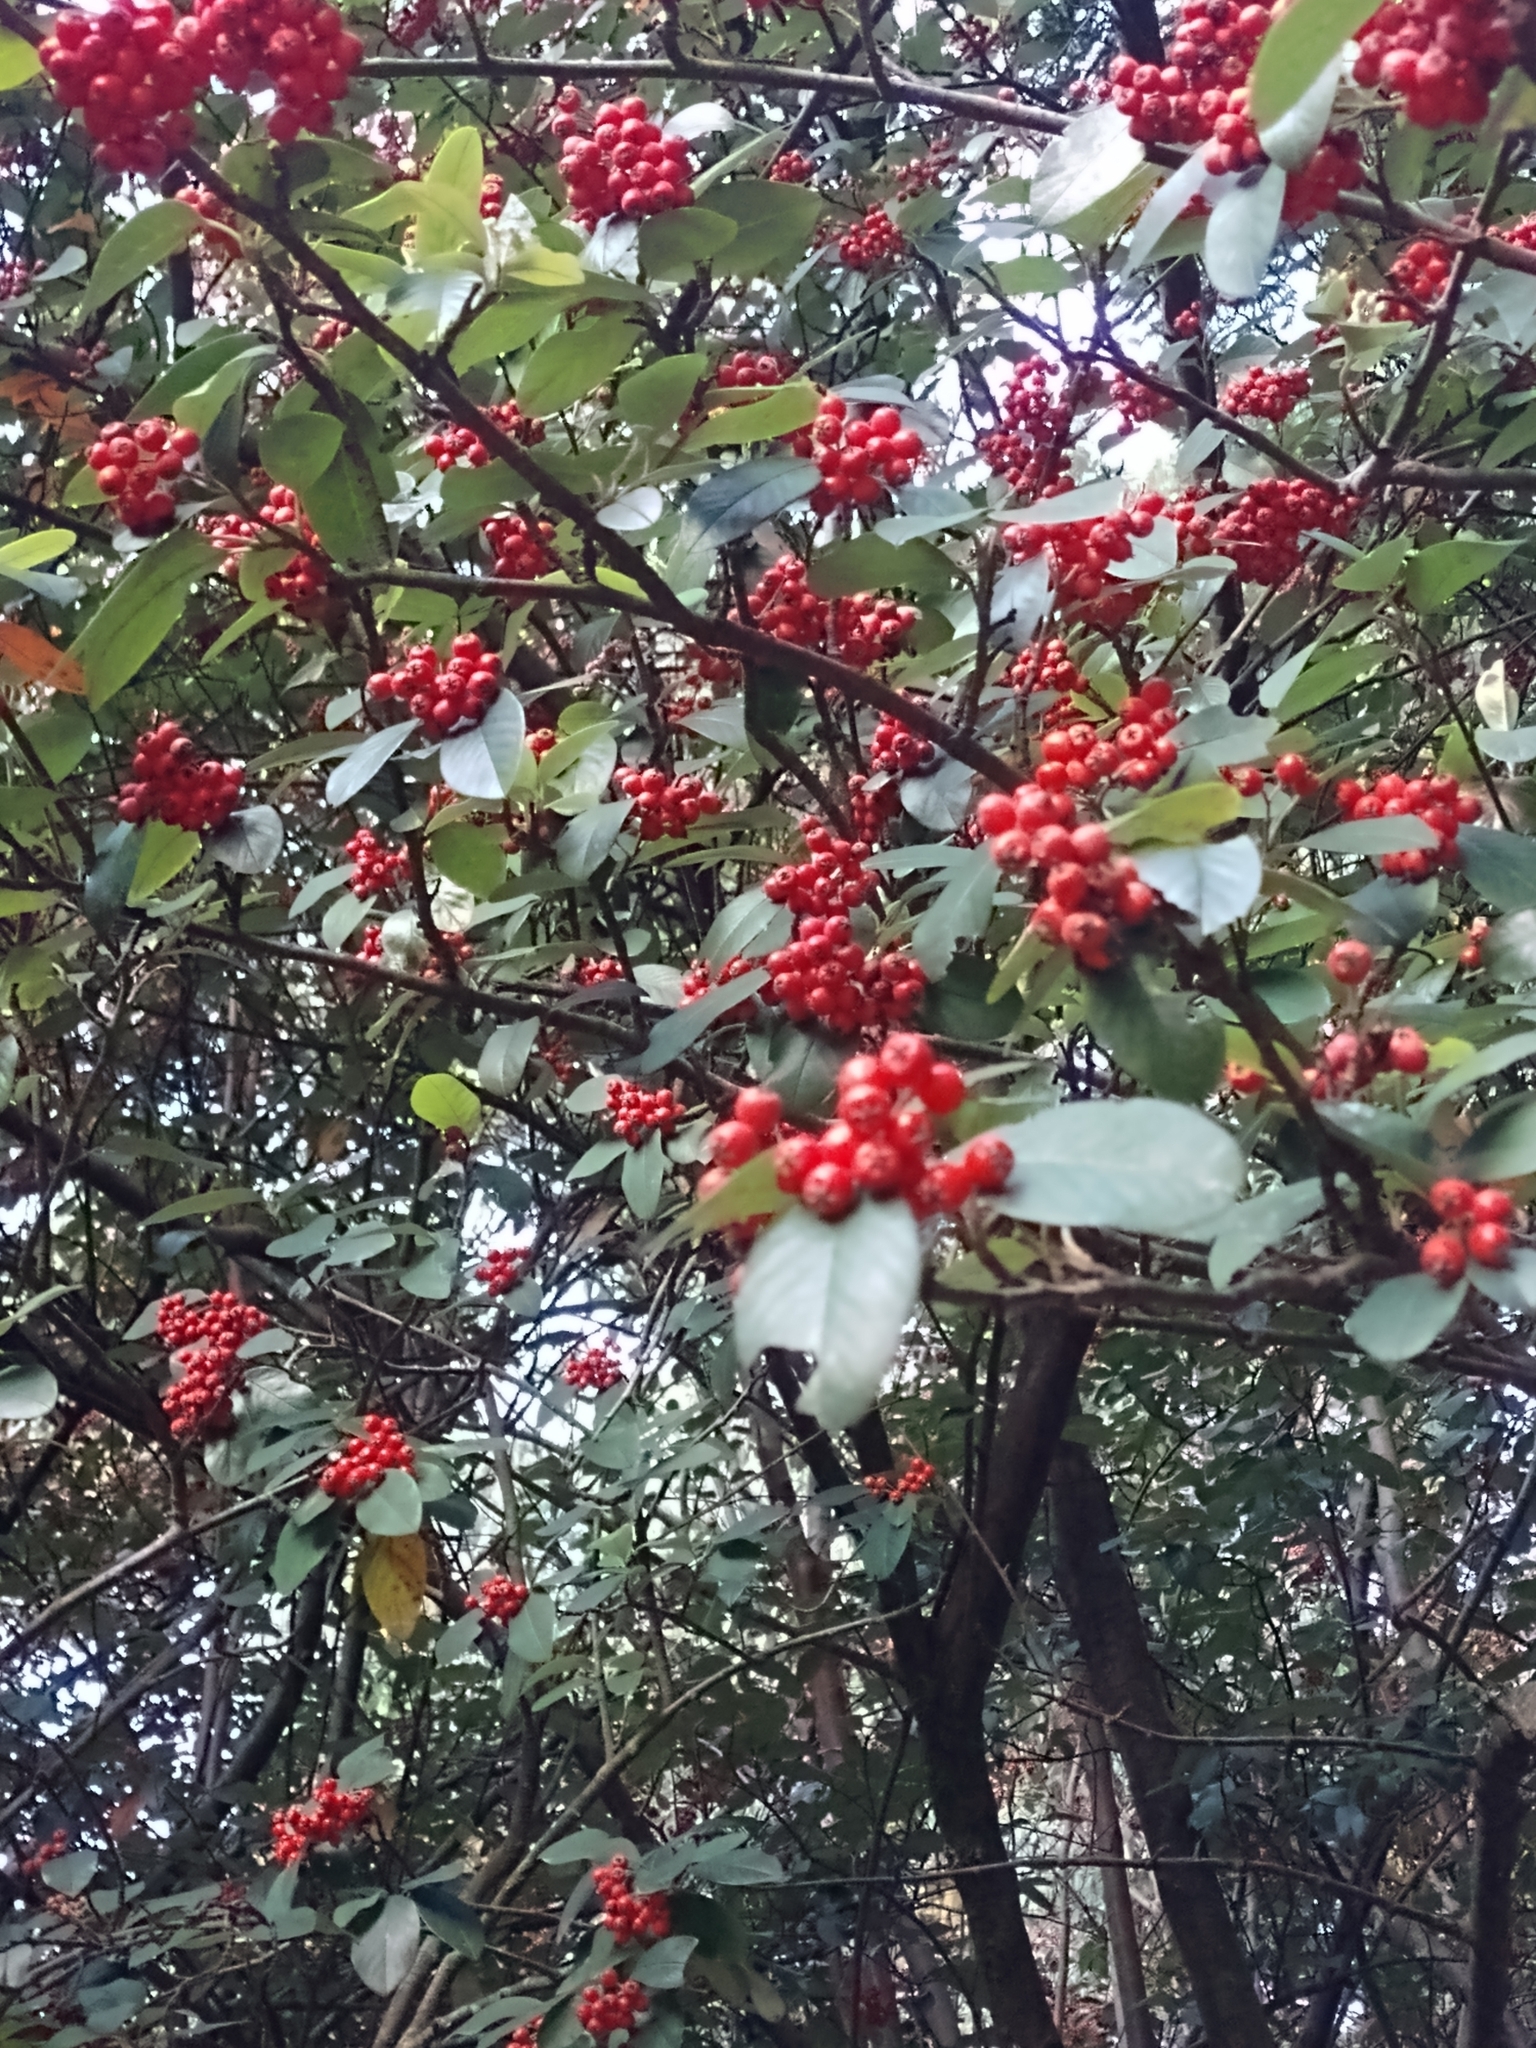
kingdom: Plantae
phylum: Tracheophyta
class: Magnoliopsida
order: Rosales
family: Rosaceae
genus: Cotoneaster
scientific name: Cotoneaster glaucophyllus
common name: Glaucous cotoneaster
